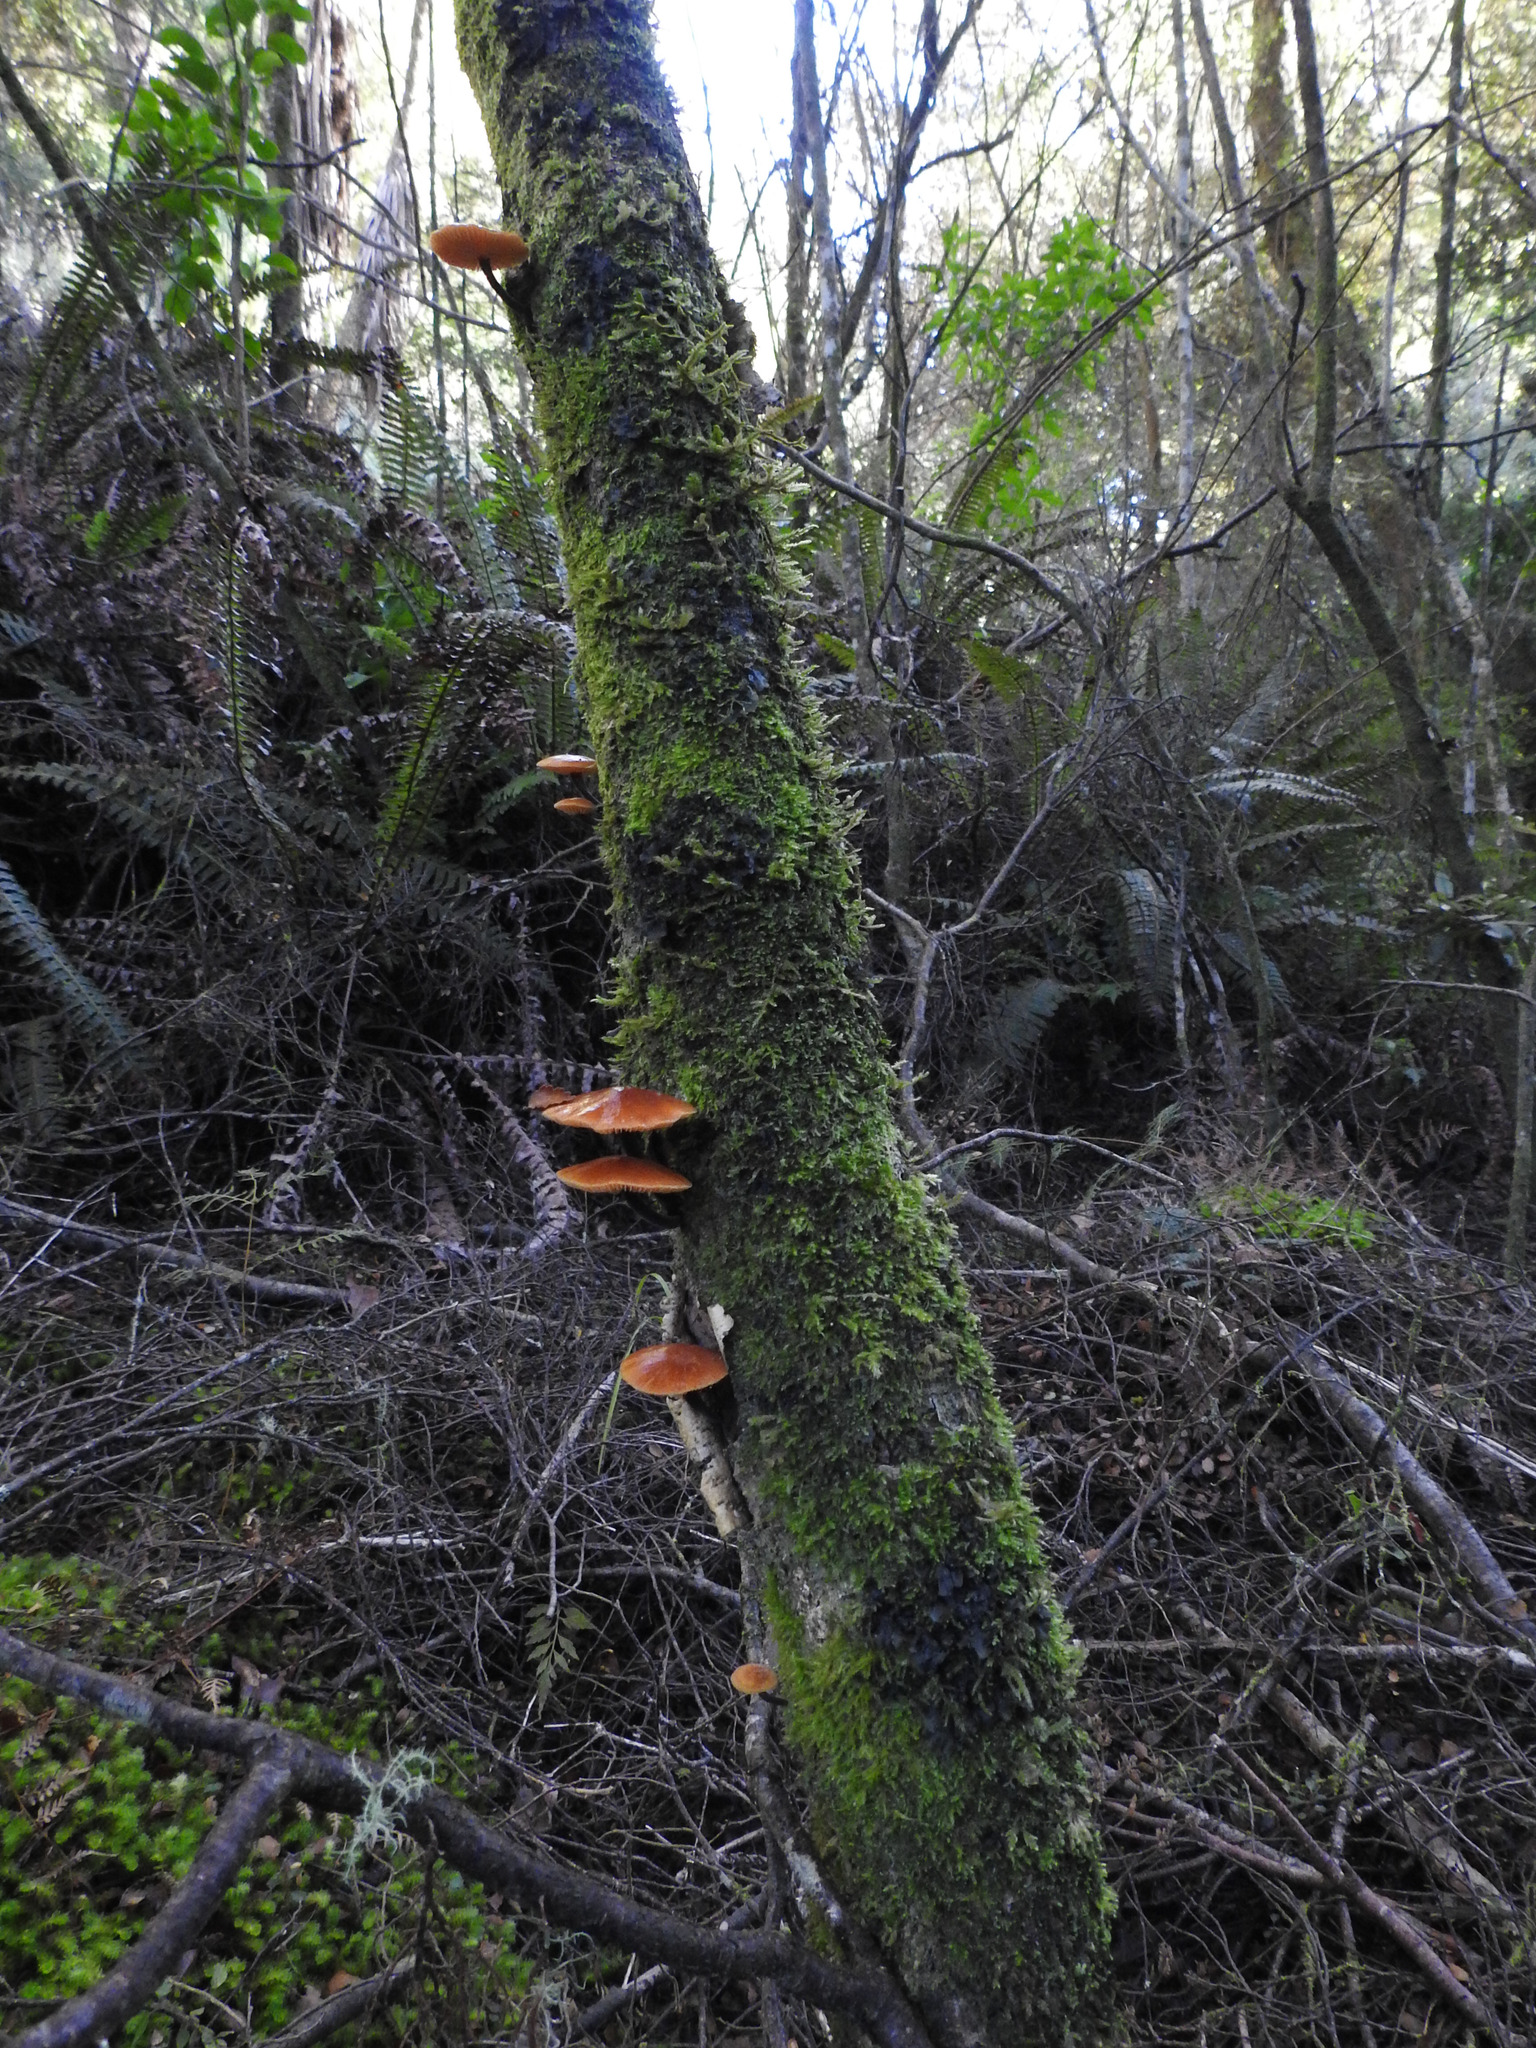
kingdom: Fungi
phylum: Basidiomycota
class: Agaricomycetes
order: Agaricales
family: Physalacriaceae
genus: Flammulina
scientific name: Flammulina velutipes
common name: Velvet shank
